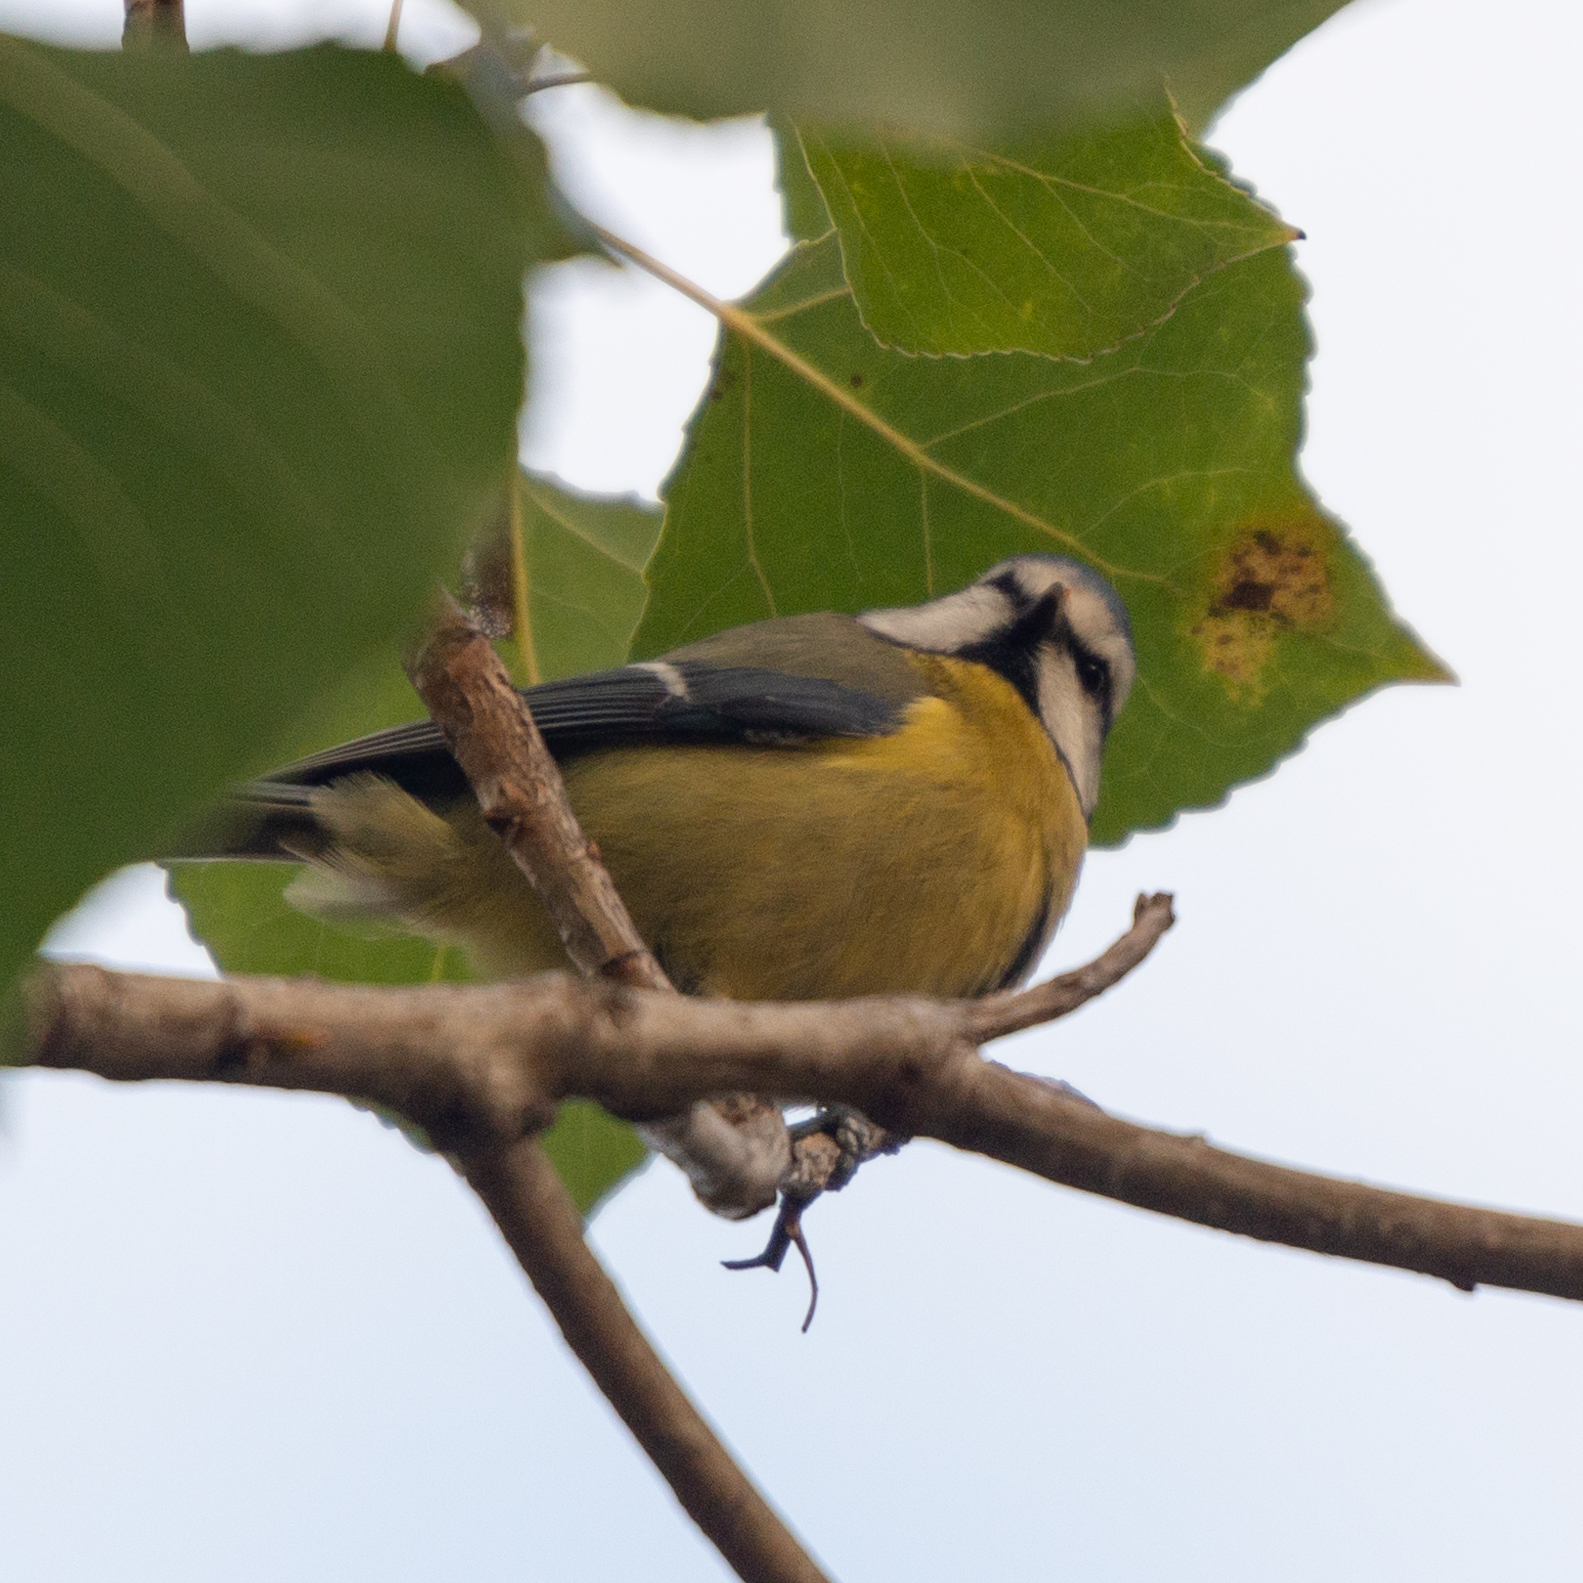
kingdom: Animalia
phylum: Chordata
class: Aves
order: Passeriformes
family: Paridae
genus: Cyanistes
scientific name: Cyanistes caeruleus
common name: Eurasian blue tit
